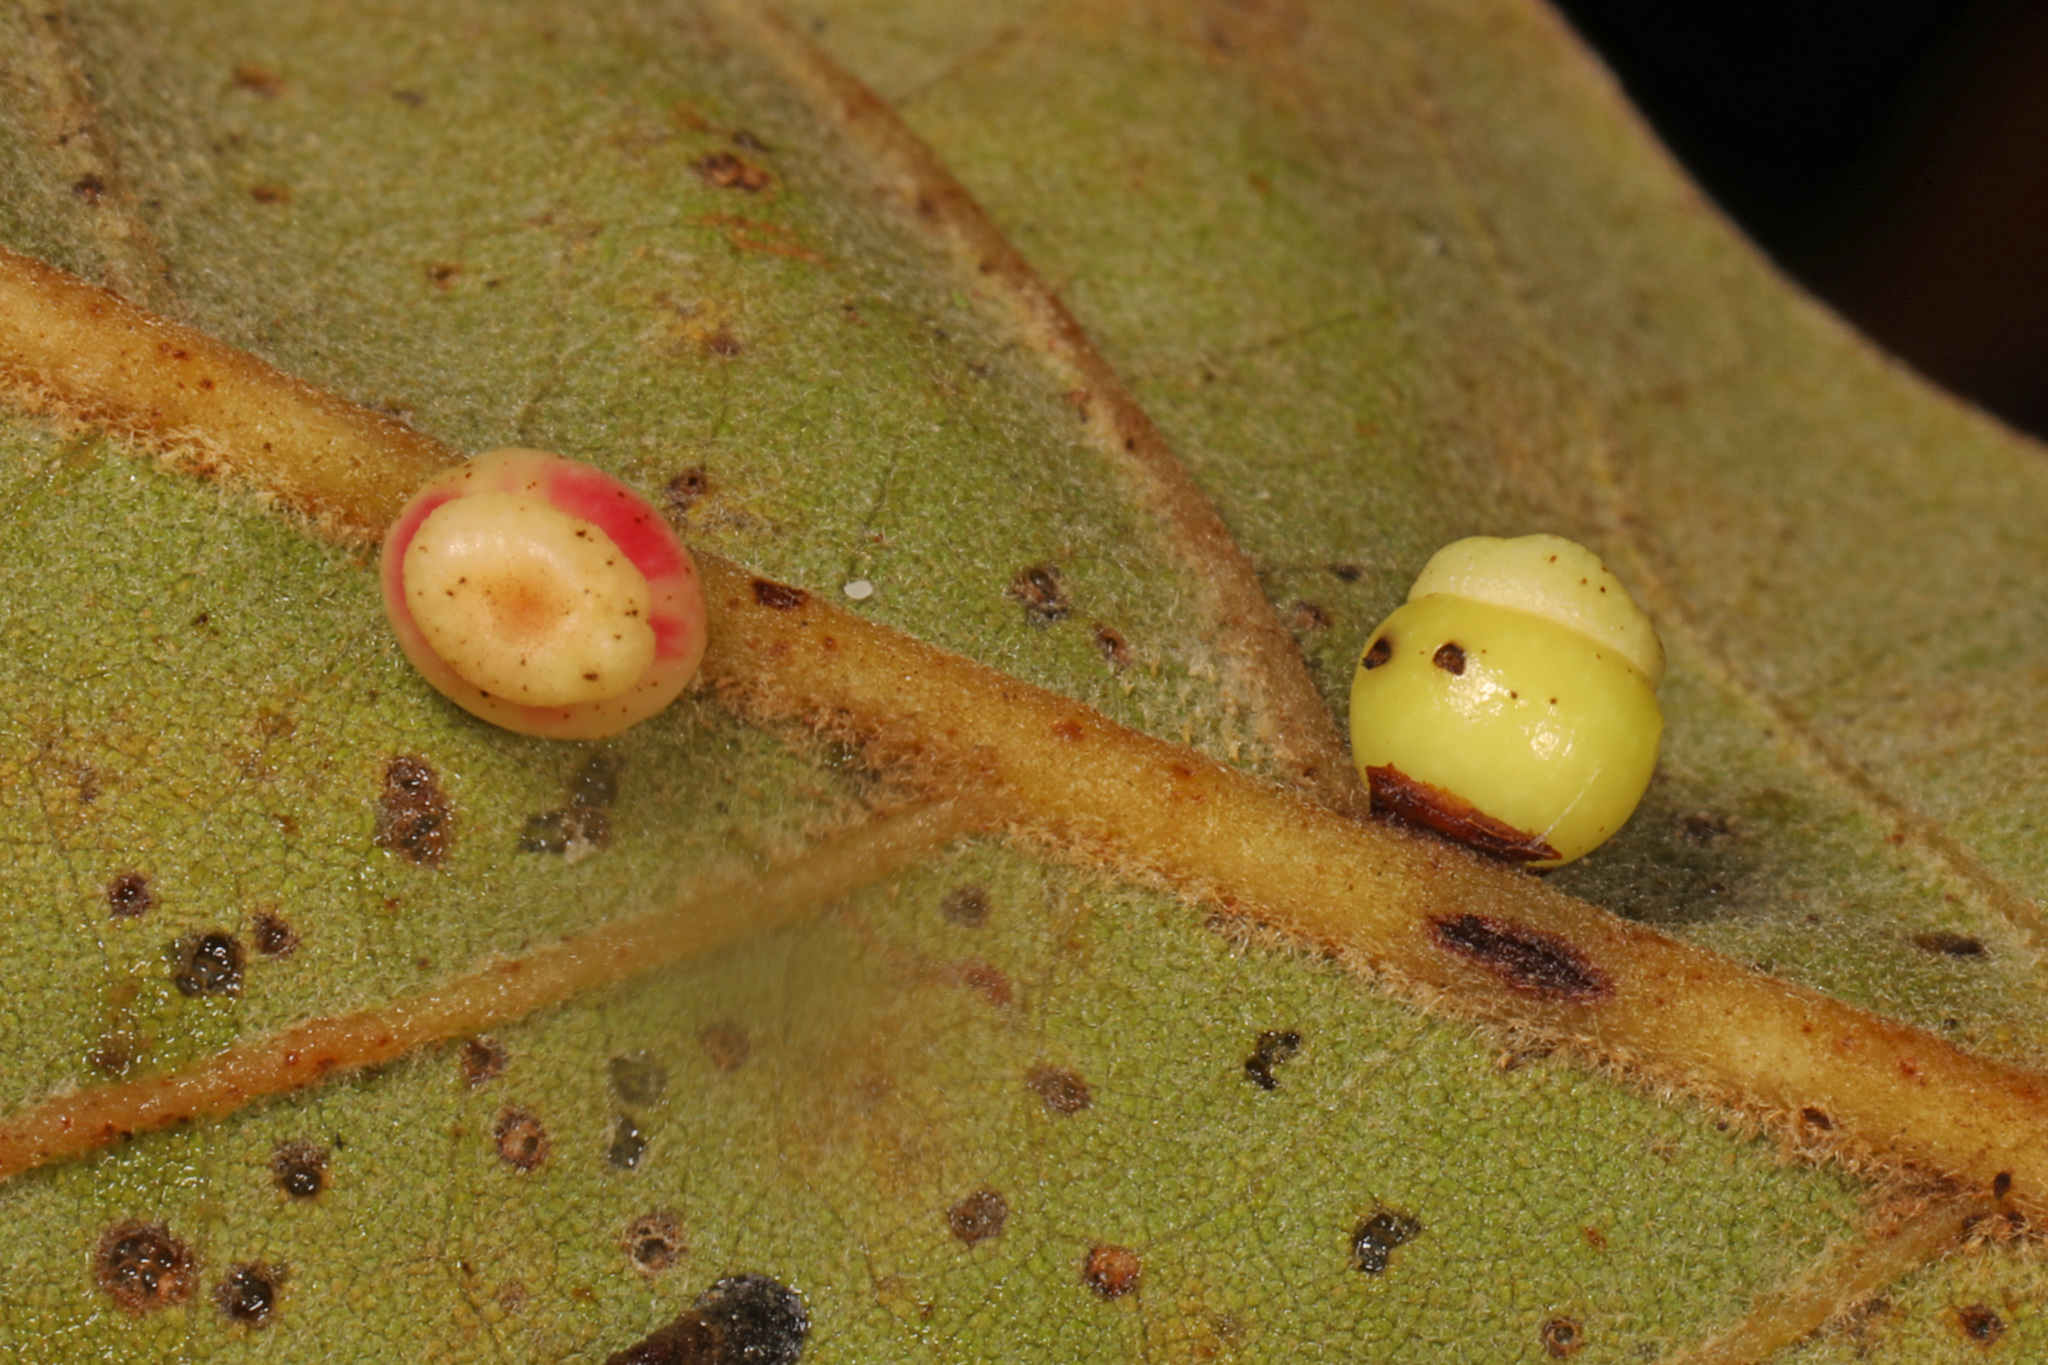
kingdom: Animalia
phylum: Arthropoda
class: Insecta
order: Hymenoptera
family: Cynipidae
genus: Kokkocynips
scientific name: Kokkocynips rileyi
